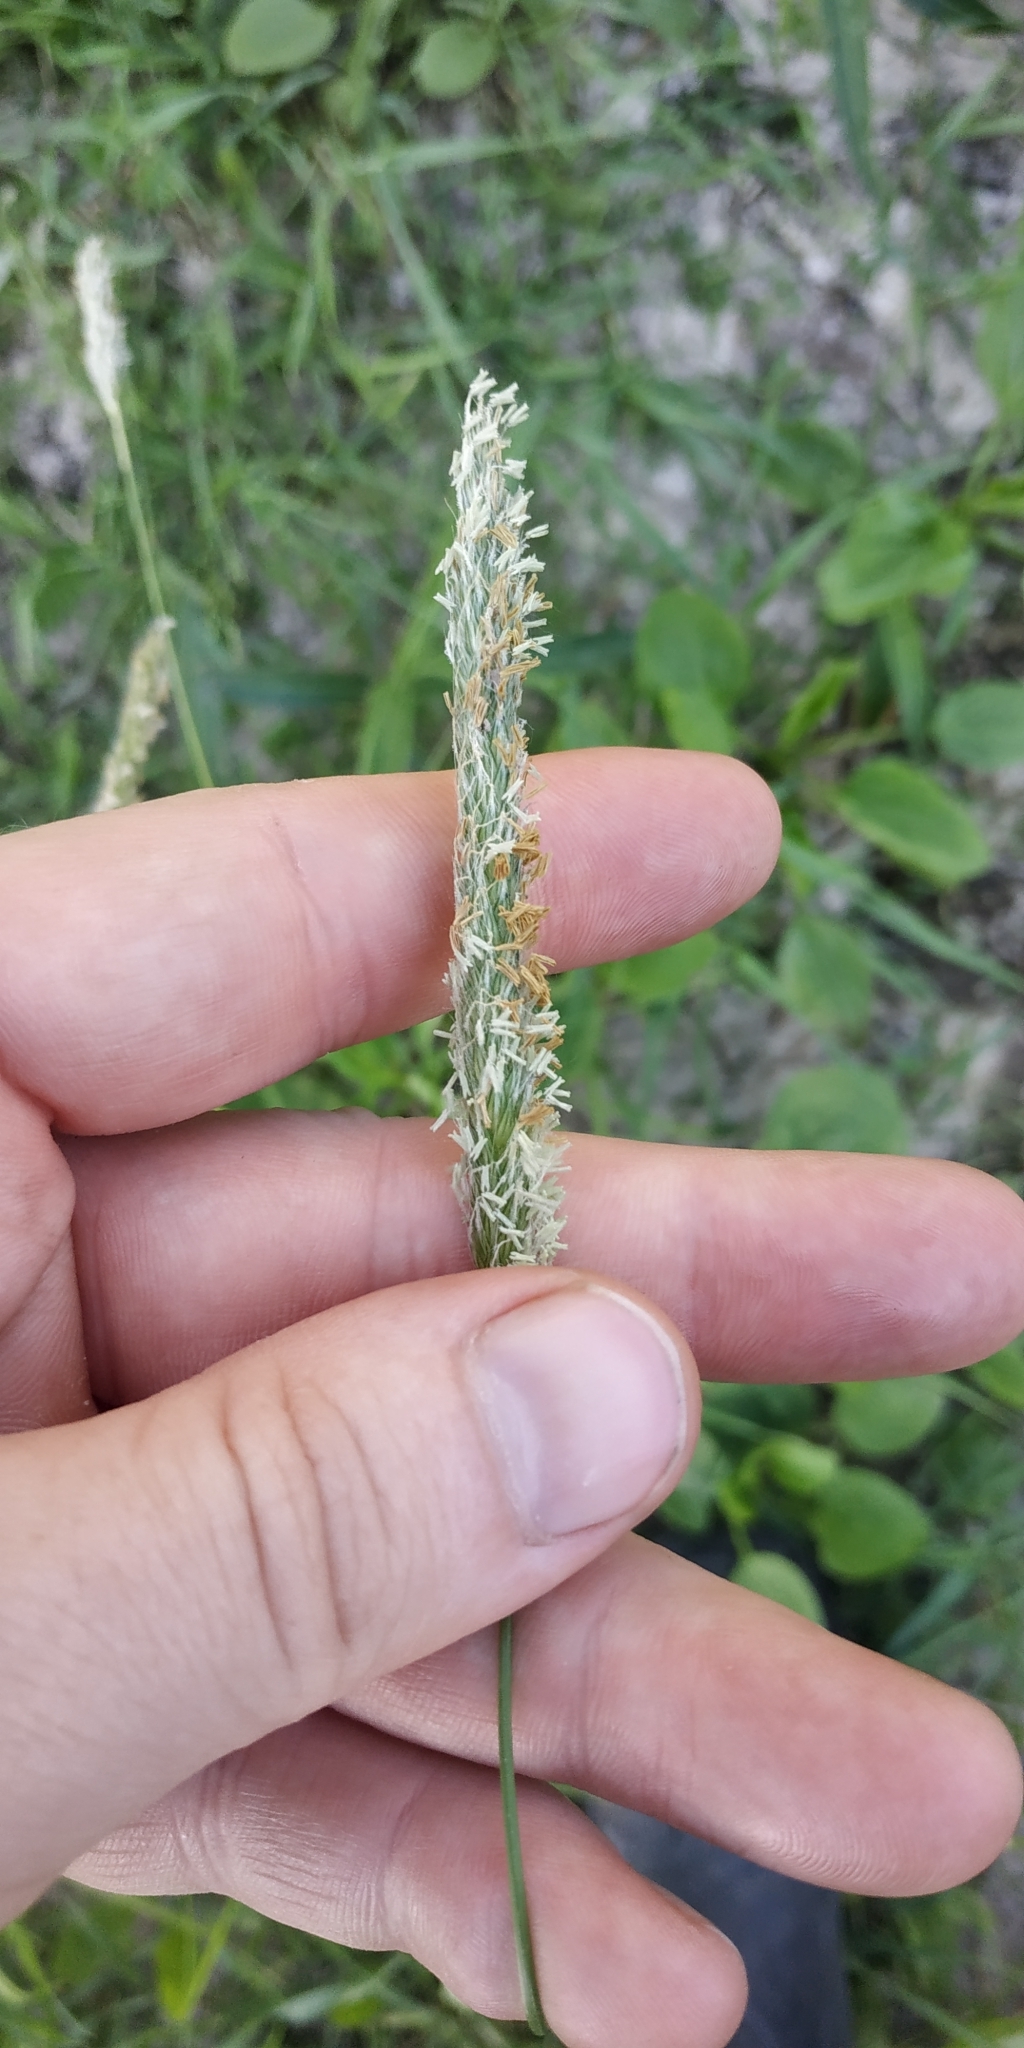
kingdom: Plantae
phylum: Tracheophyta
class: Liliopsida
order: Poales
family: Poaceae
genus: Alopecurus
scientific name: Alopecurus pratensis
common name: Meadow foxtail
